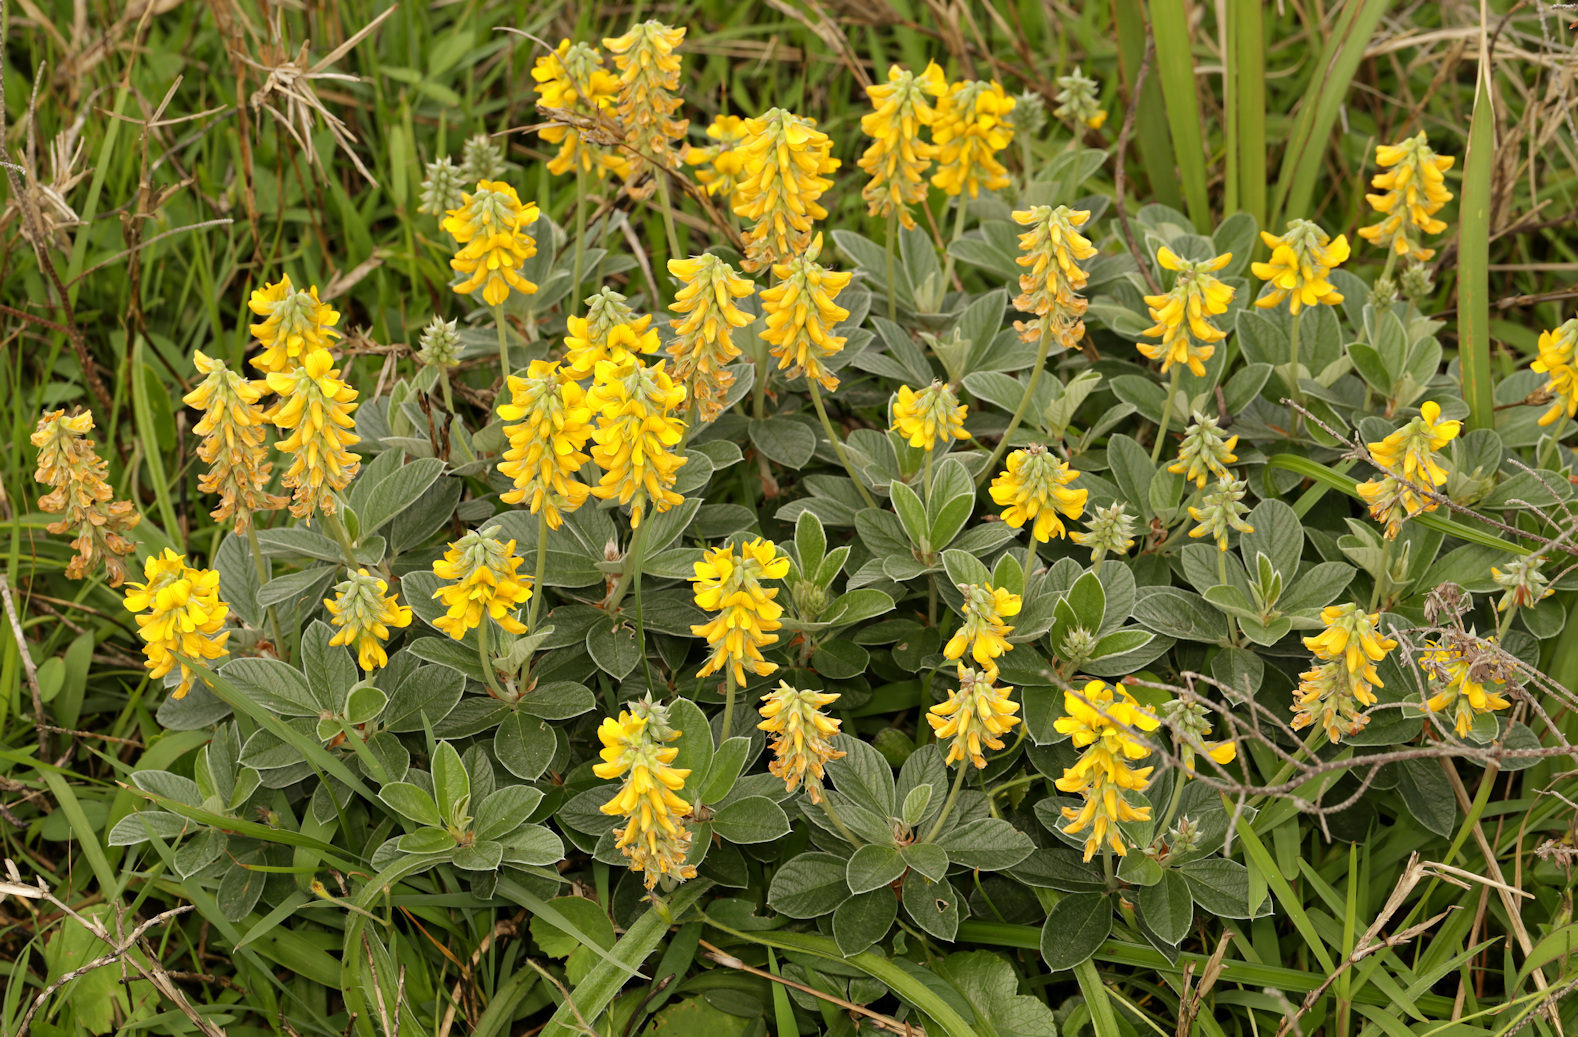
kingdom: Plantae
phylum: Tracheophyta
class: Magnoliopsida
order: Fabales
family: Fabaceae
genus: Eriosema
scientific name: Eriosema dregei
